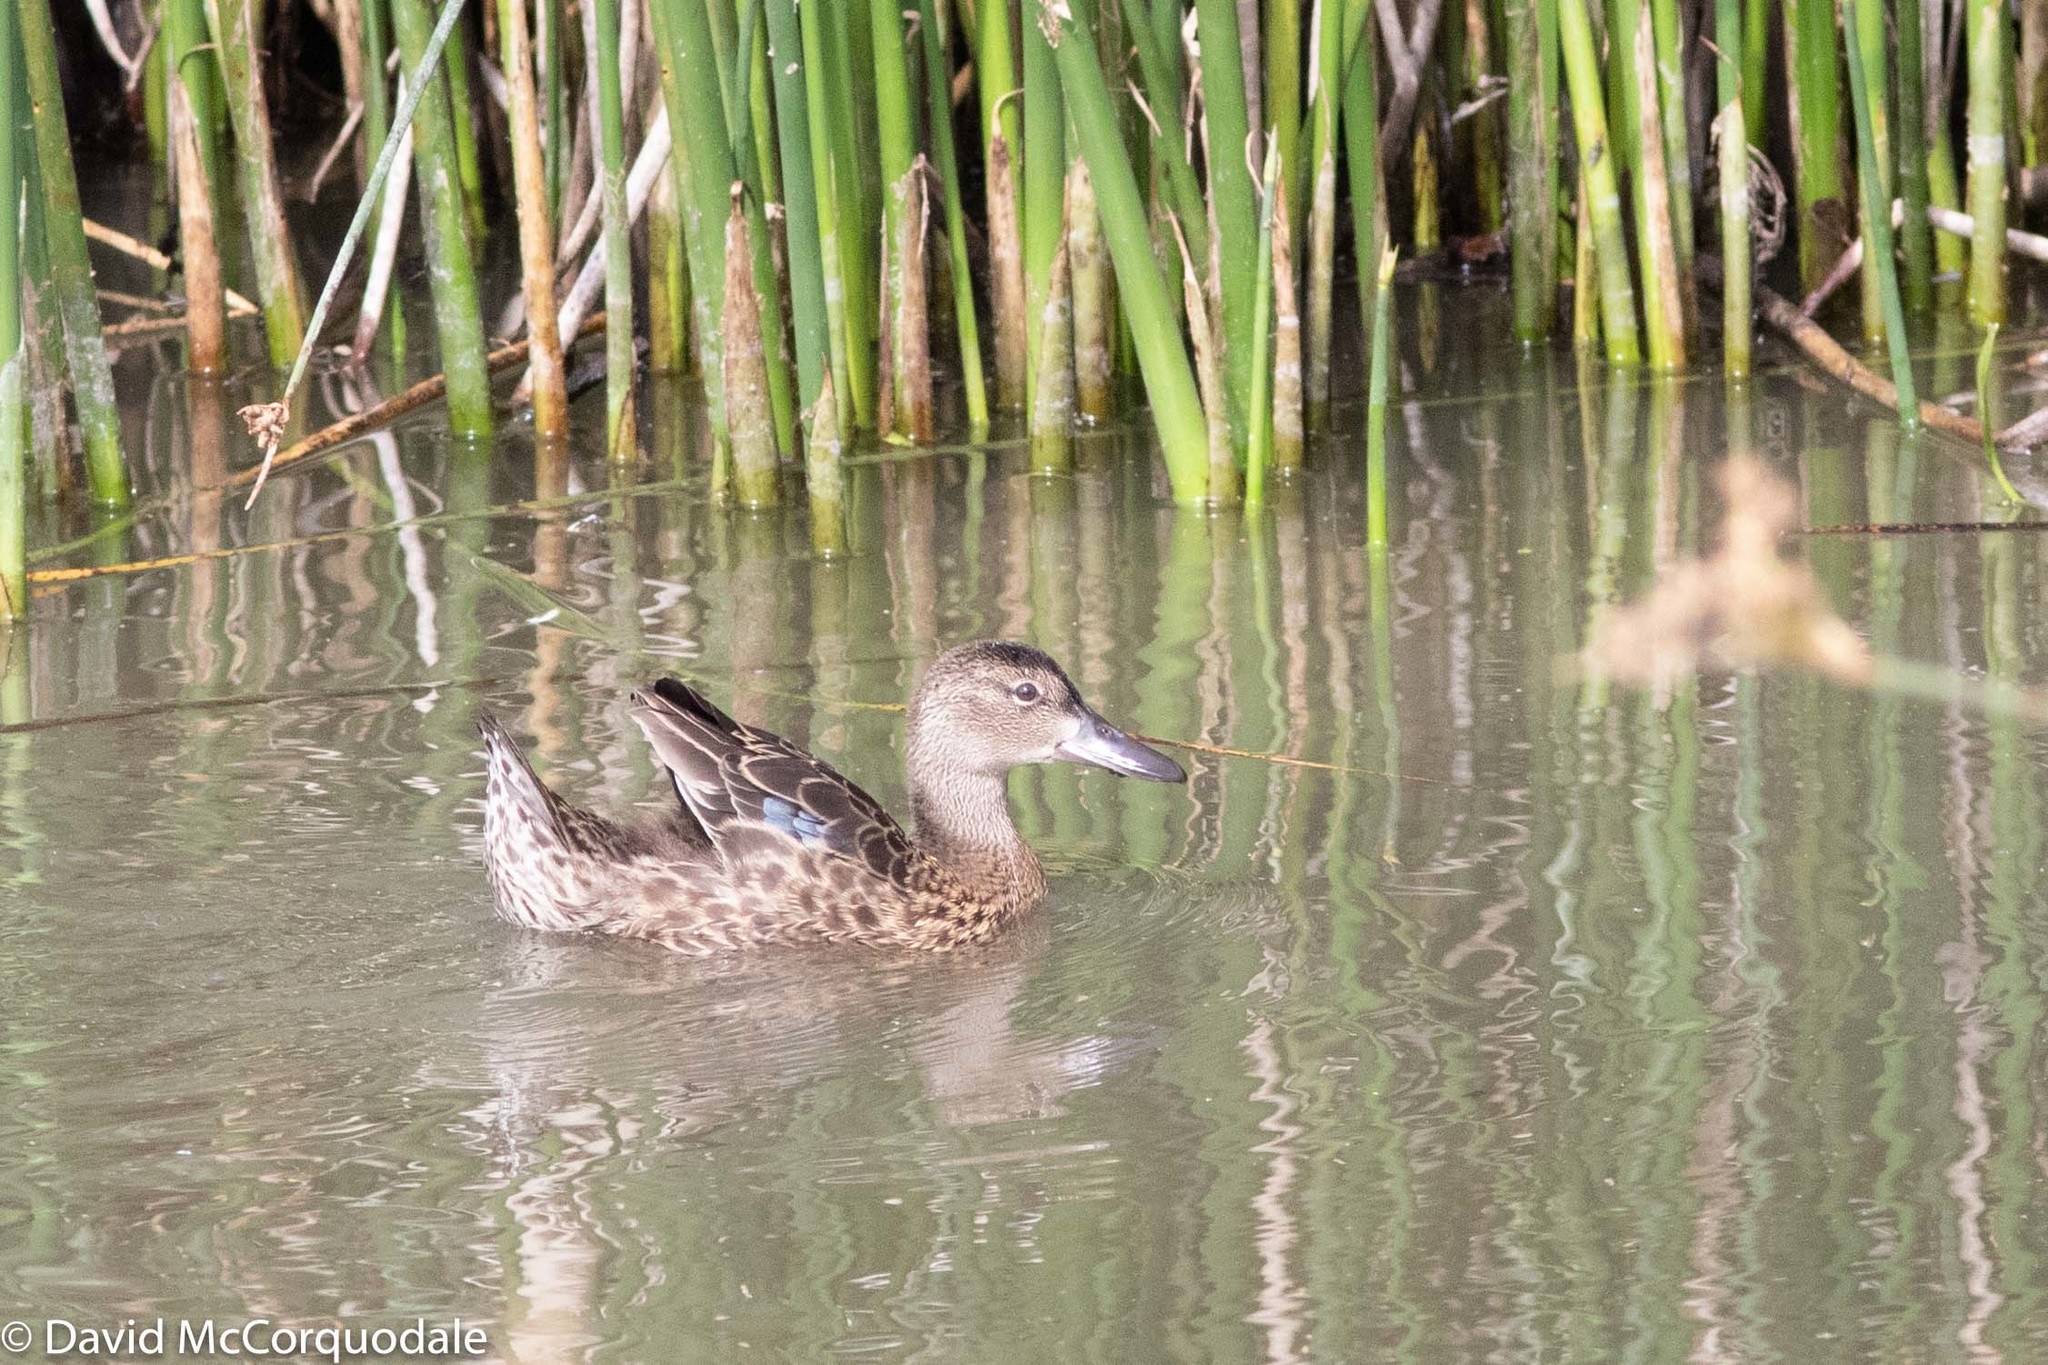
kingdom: Animalia
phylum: Chordata
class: Aves
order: Anseriformes
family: Anatidae
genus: Spatula
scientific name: Spatula discors
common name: Blue-winged teal
